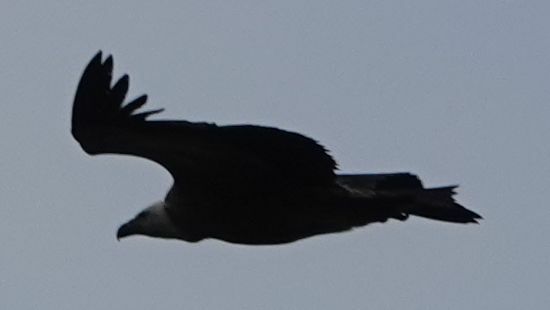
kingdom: Animalia
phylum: Chordata
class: Aves
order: Accipitriformes
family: Accipitridae
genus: Gyps
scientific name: Gyps fulvus
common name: Griffon vulture
